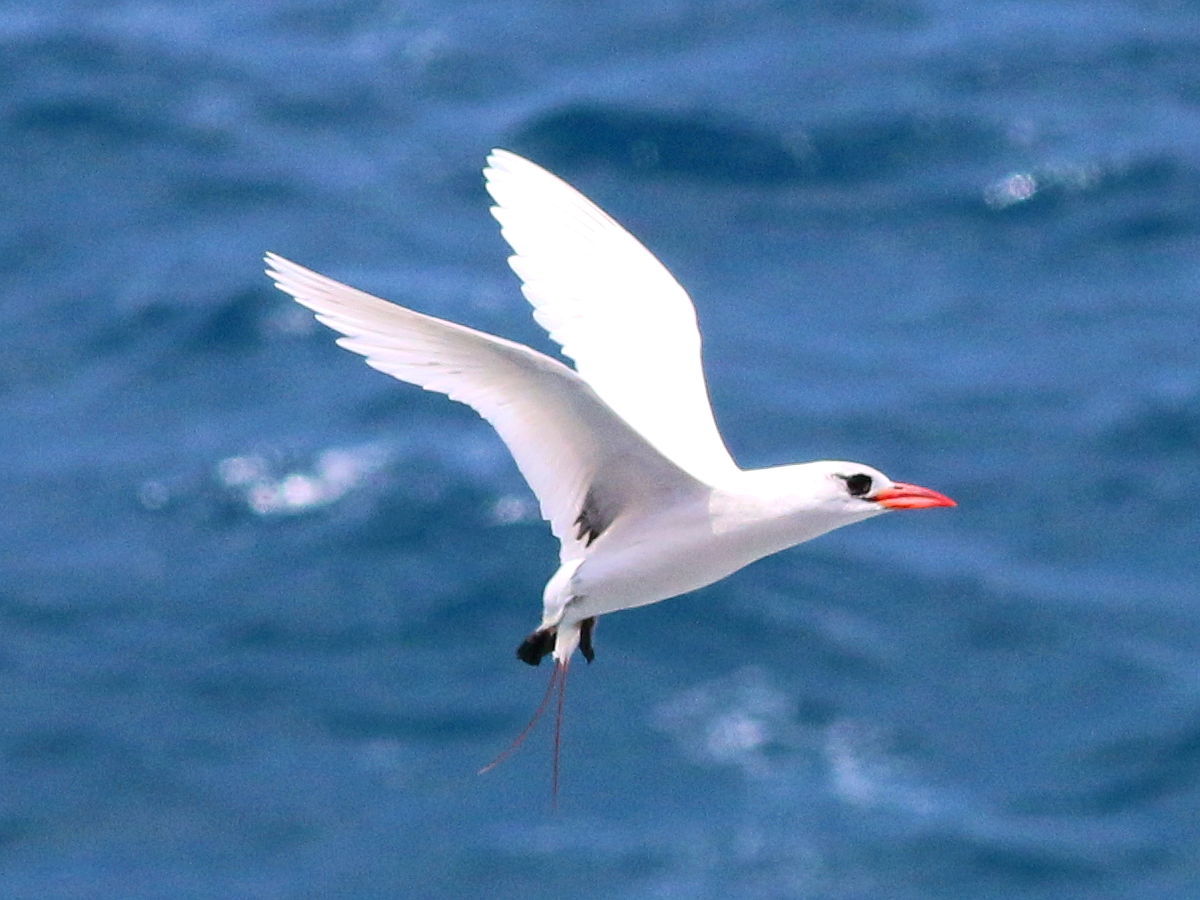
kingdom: Animalia
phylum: Chordata
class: Aves
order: Phaethontiformes
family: Phaethontidae
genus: Phaethon
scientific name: Phaethon rubricauda
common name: Red-tailed tropicbird
